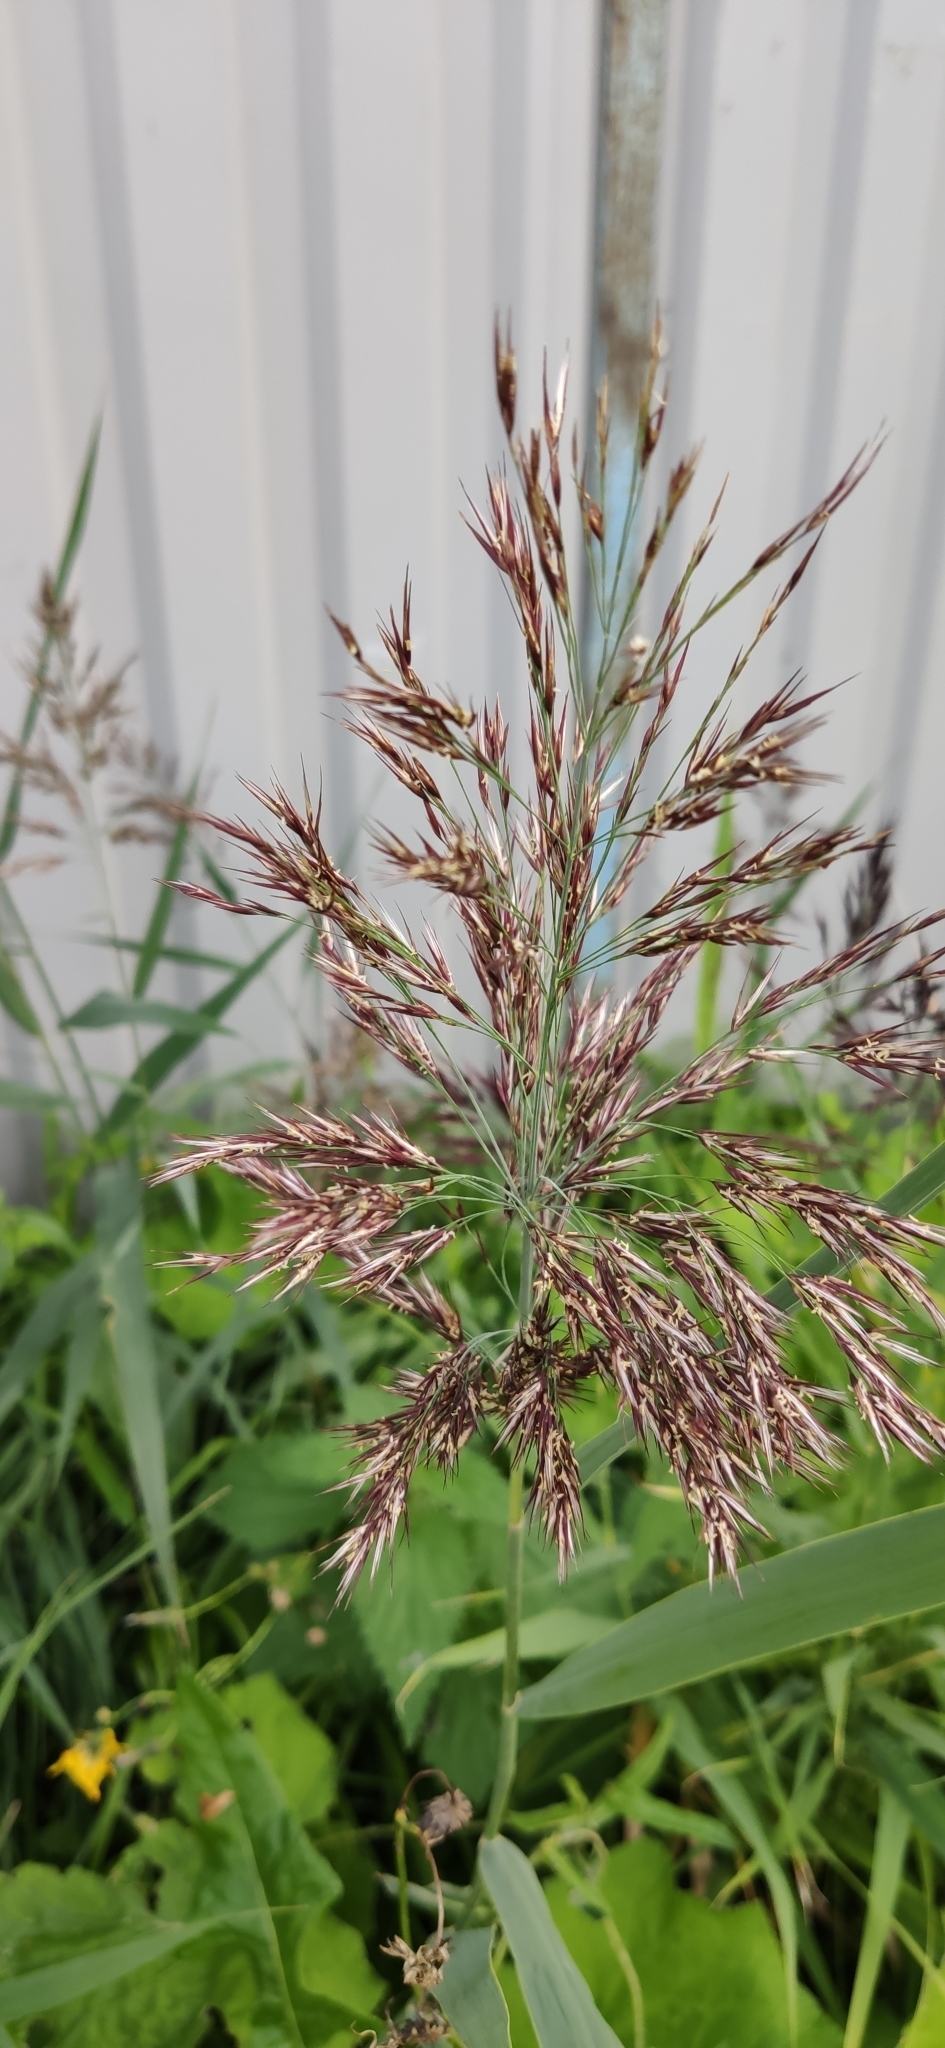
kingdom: Plantae
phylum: Tracheophyta
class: Liliopsida
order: Poales
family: Poaceae
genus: Phragmites
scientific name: Phragmites australis
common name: Common reed
